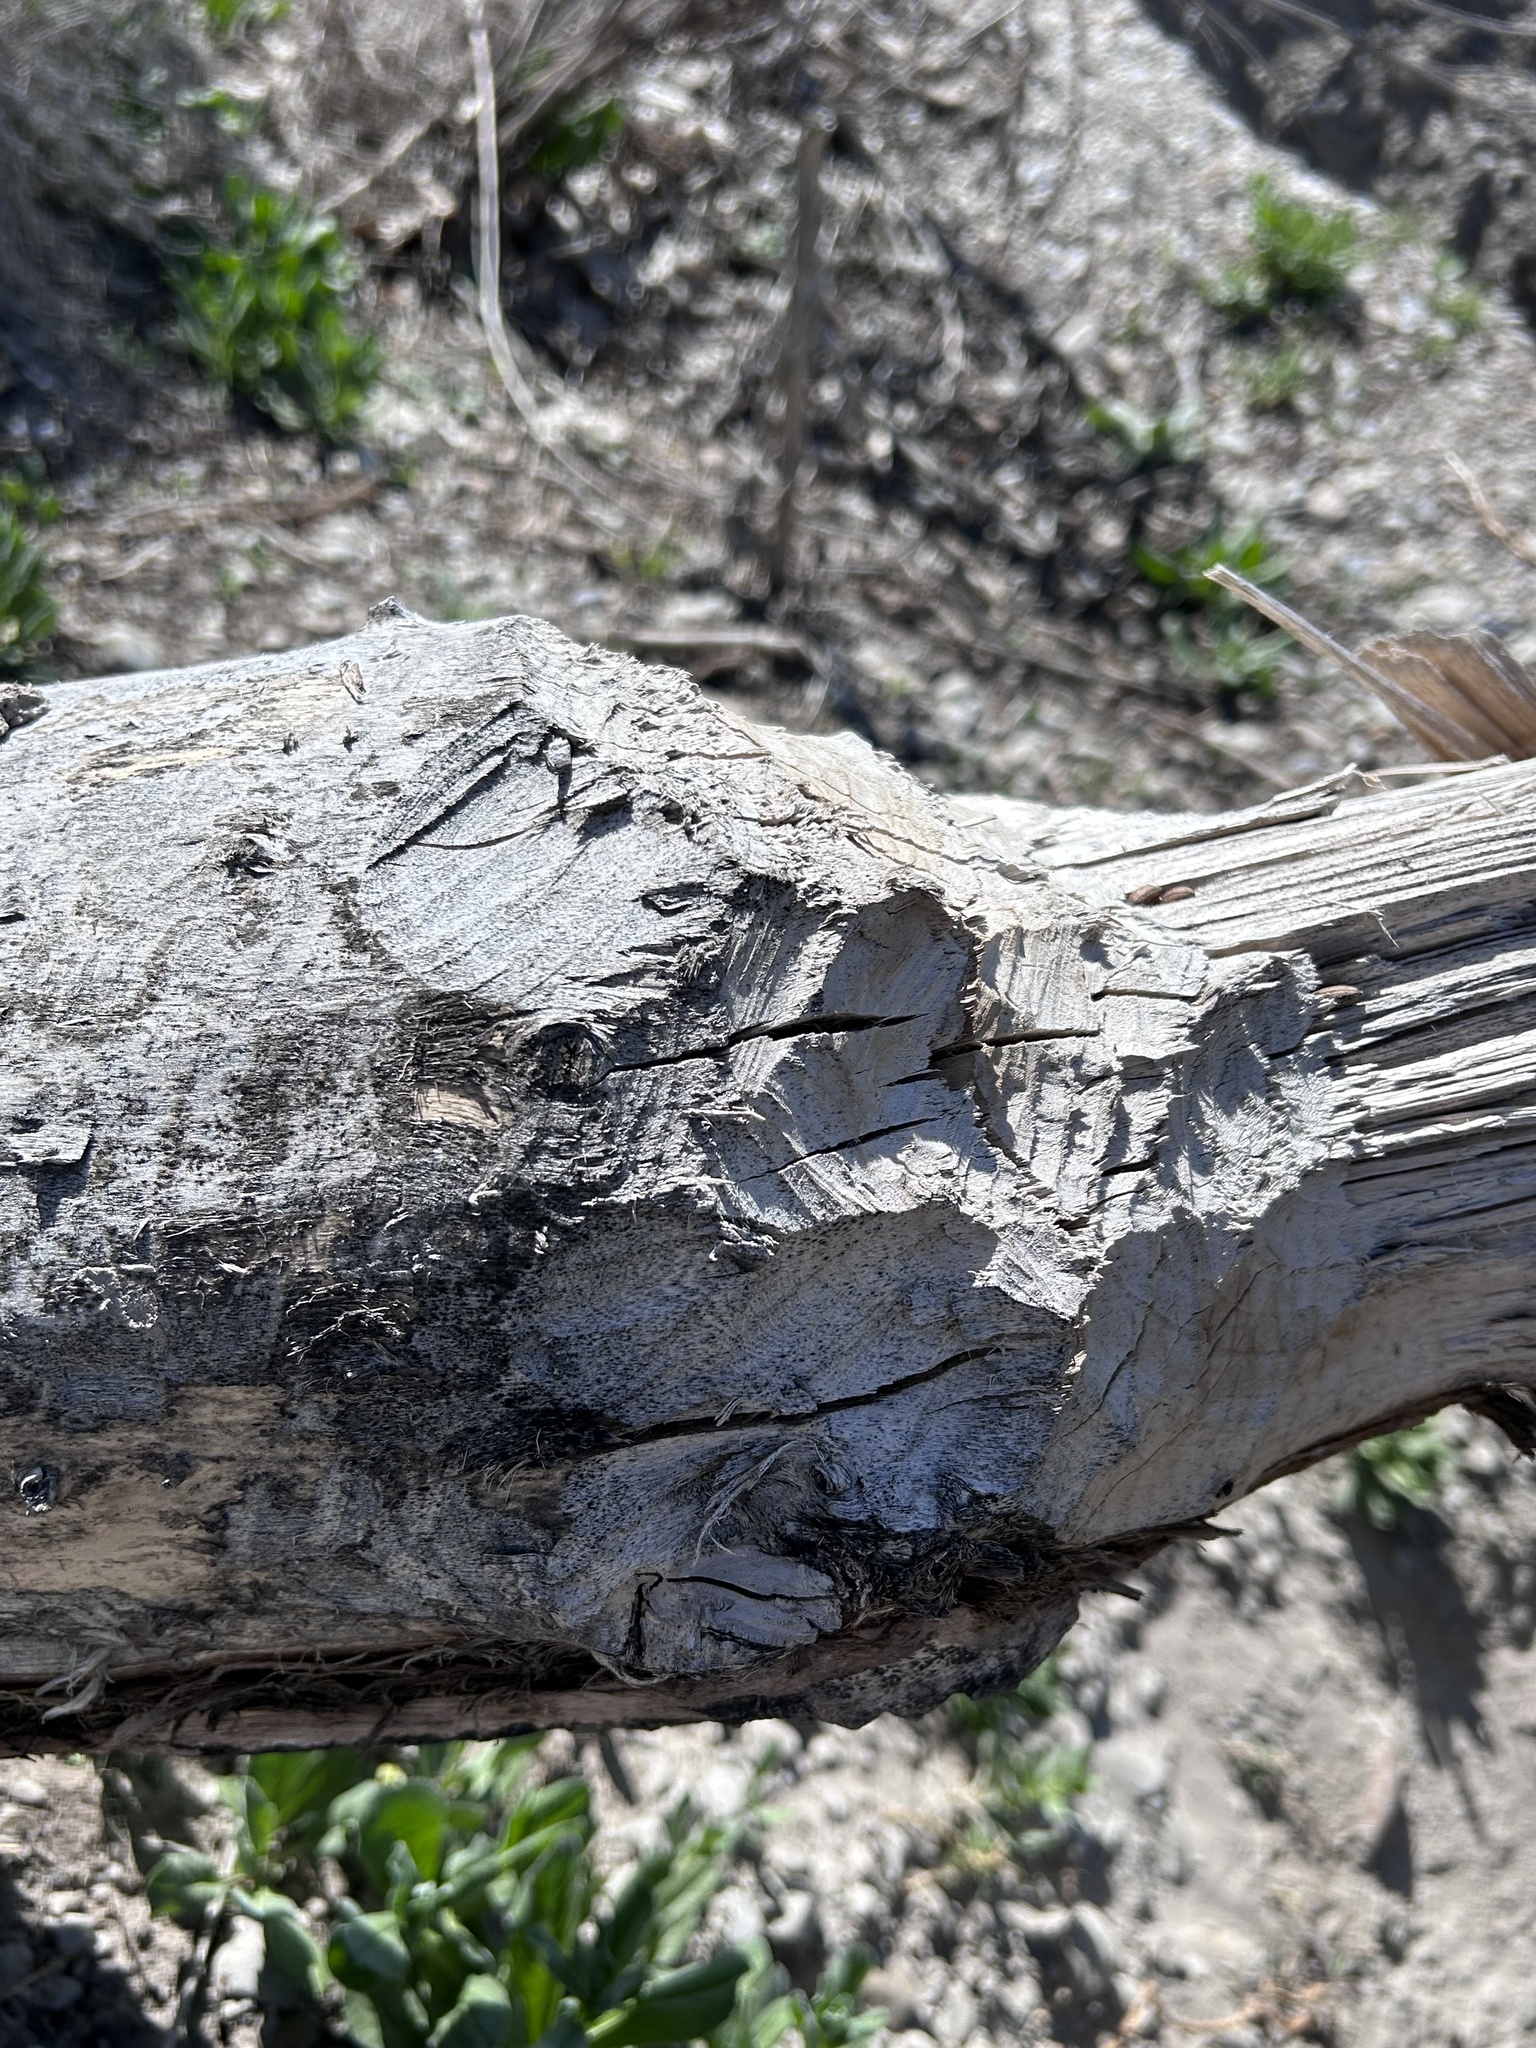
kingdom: Animalia
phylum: Chordata
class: Mammalia
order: Rodentia
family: Castoridae
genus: Castor
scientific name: Castor canadensis
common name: American beaver
